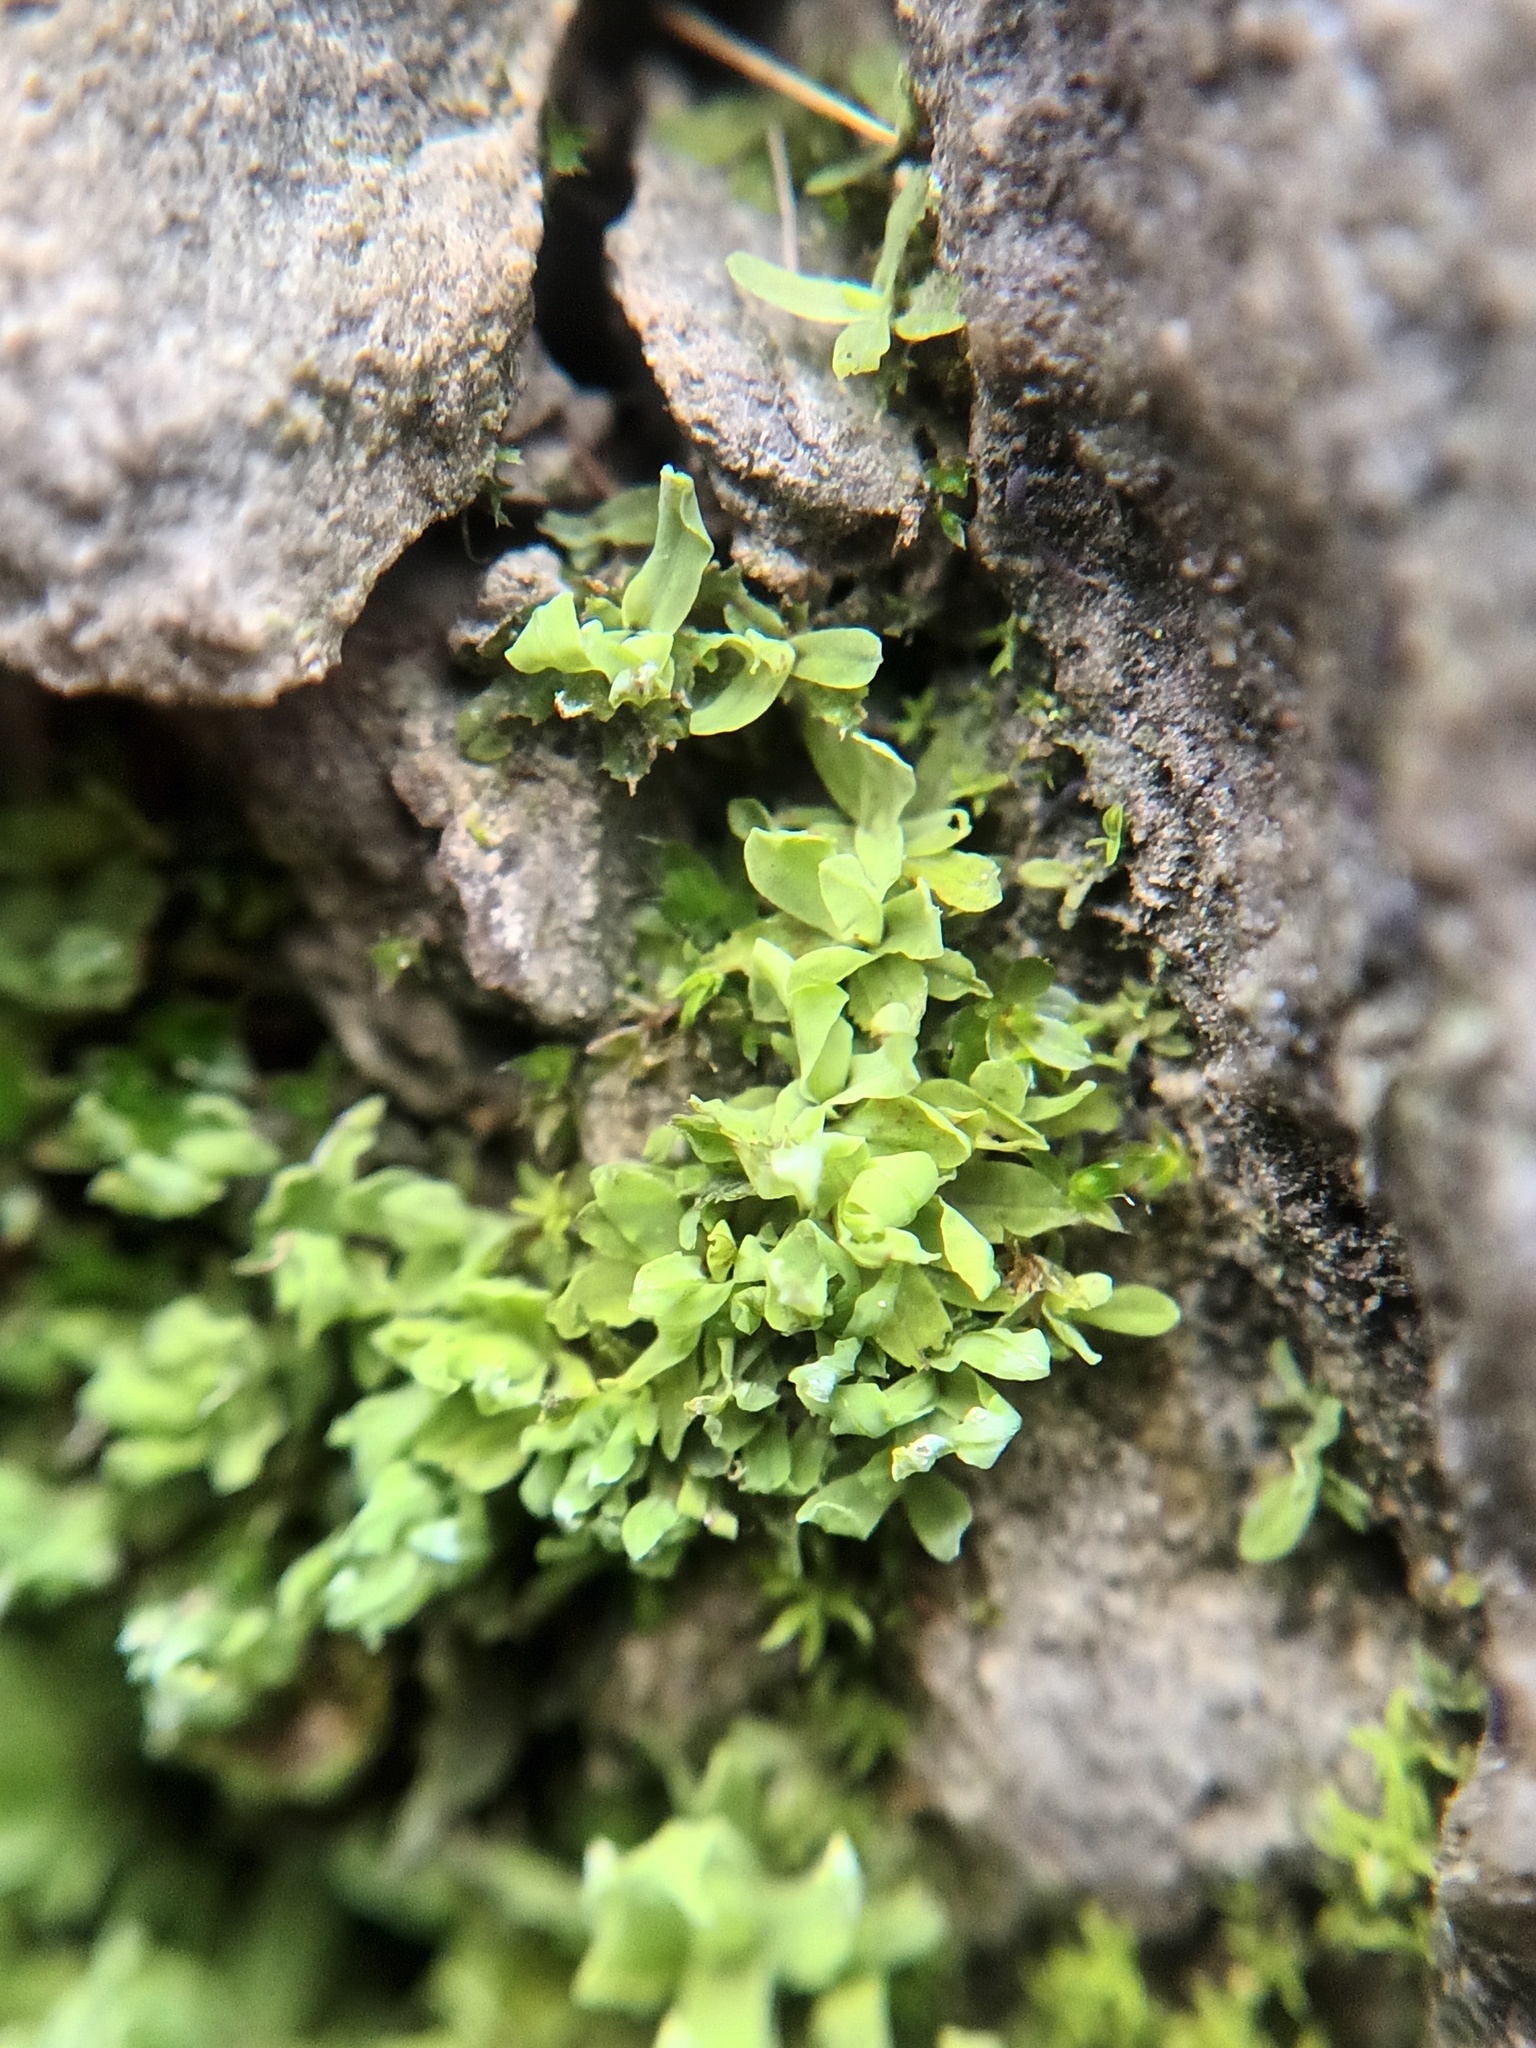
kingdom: Plantae
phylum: Bryophyta
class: Bryopsida
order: Encalyptales
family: Encalyptaceae
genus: Encalypta
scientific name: Encalypta streptocarpa
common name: Spiral extinguisher-moss
